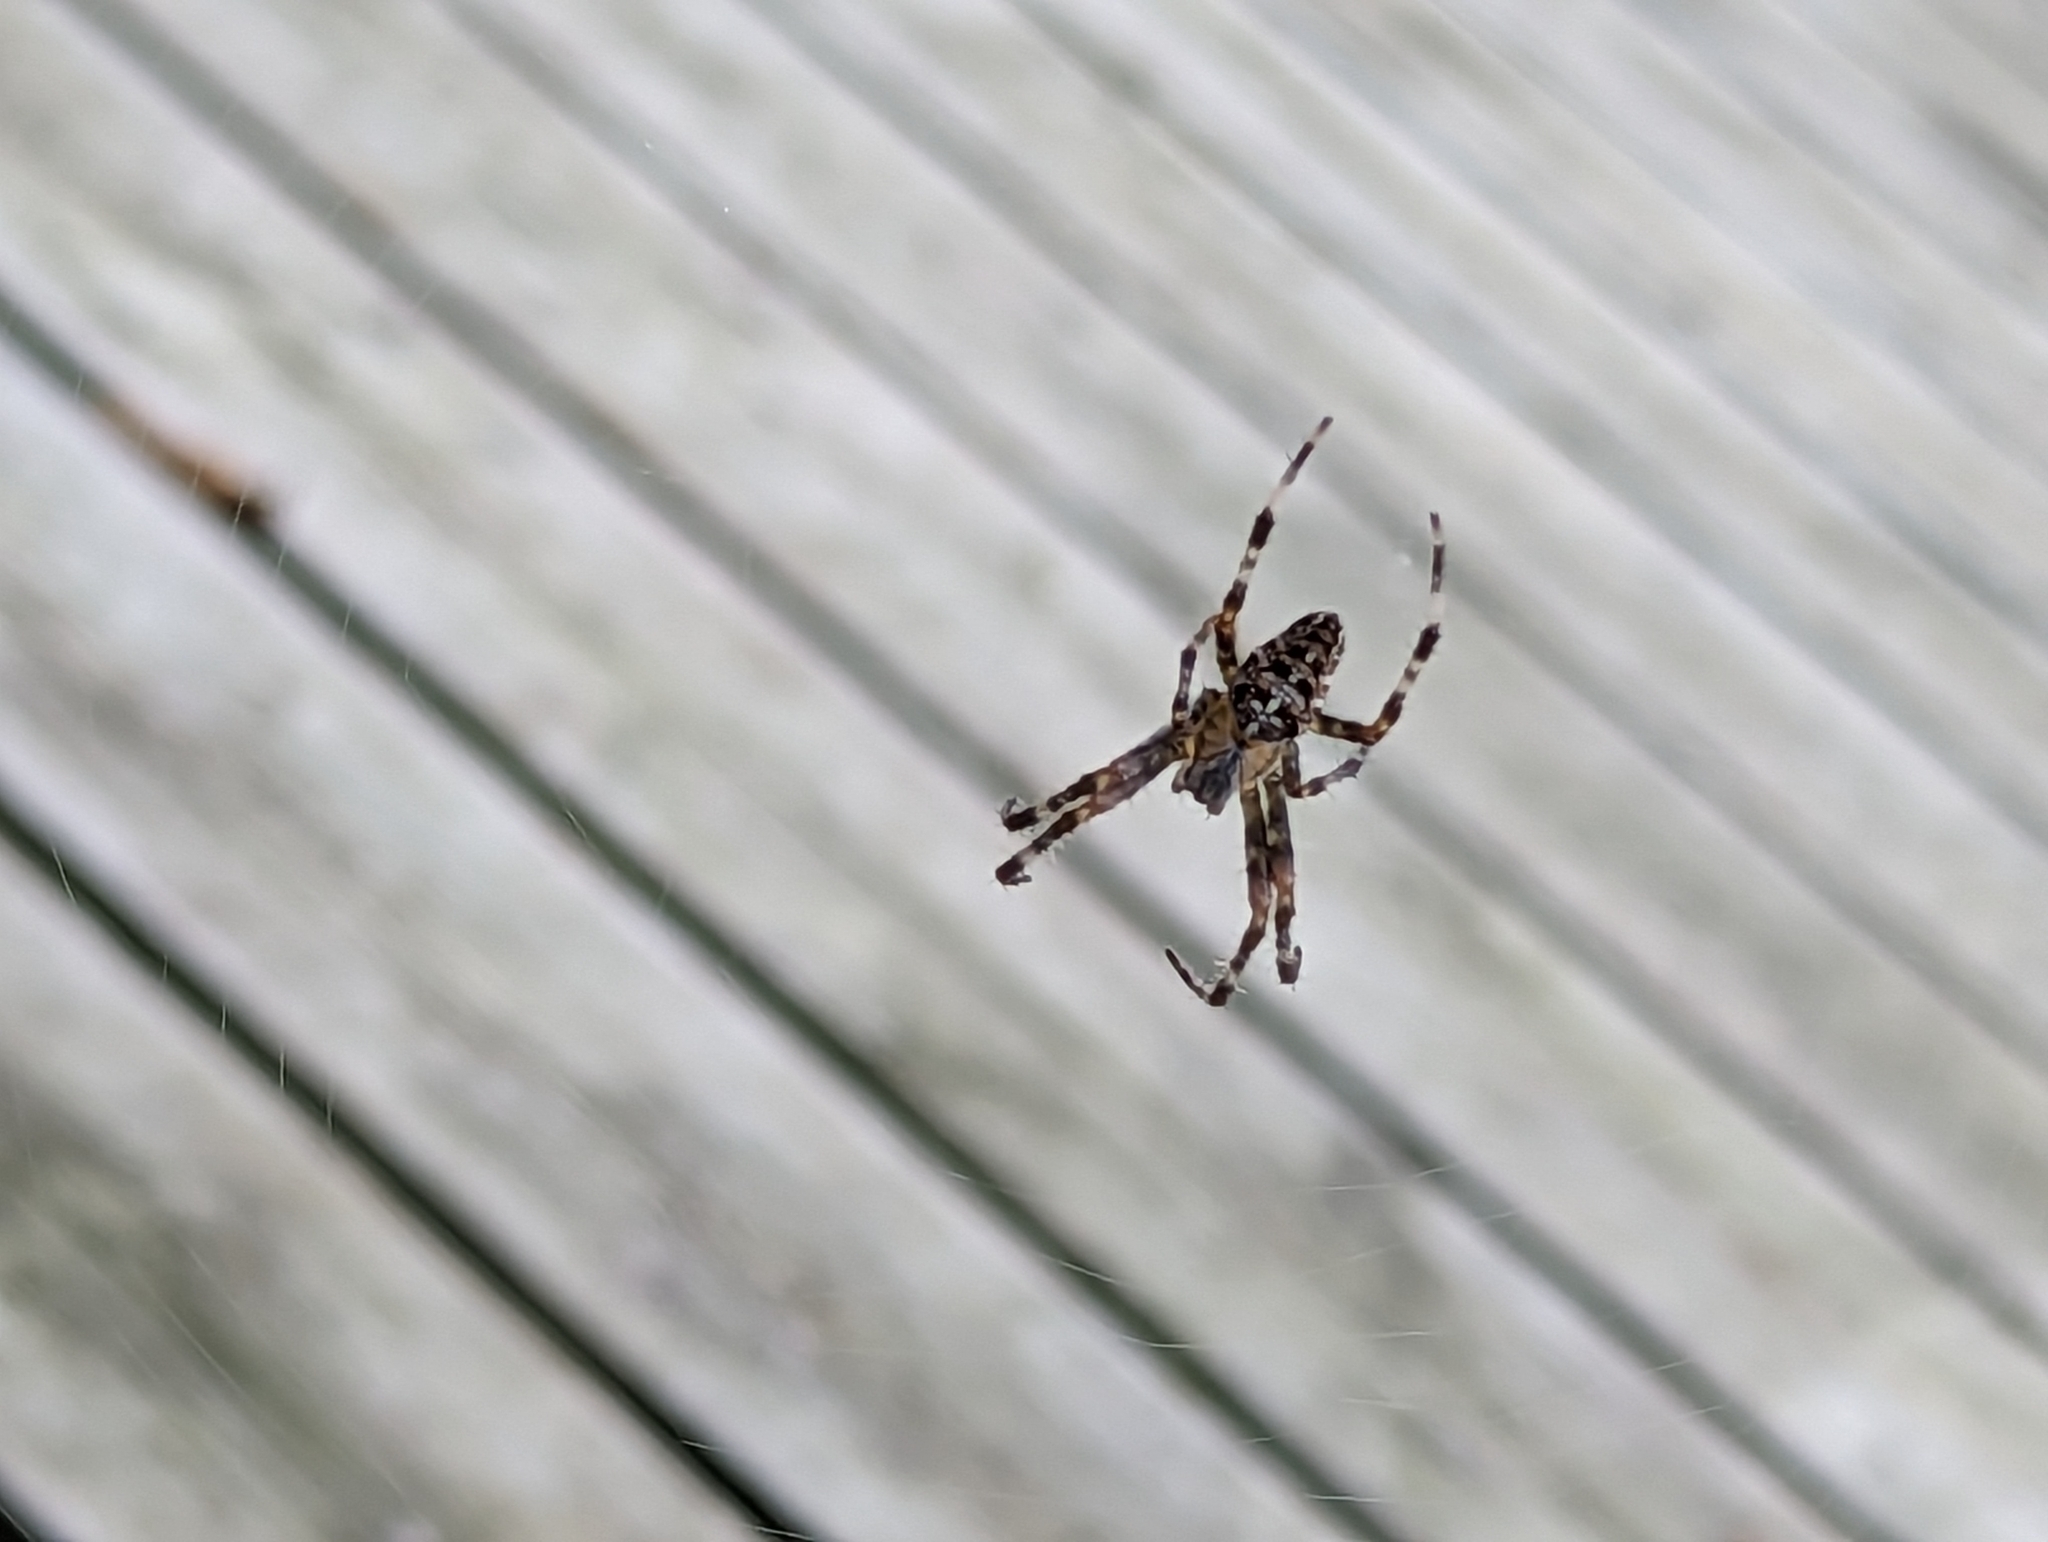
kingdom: Animalia
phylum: Arthropoda
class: Arachnida
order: Araneae
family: Araneidae
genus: Araneus
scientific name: Araneus diadematus
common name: Cross orbweaver
